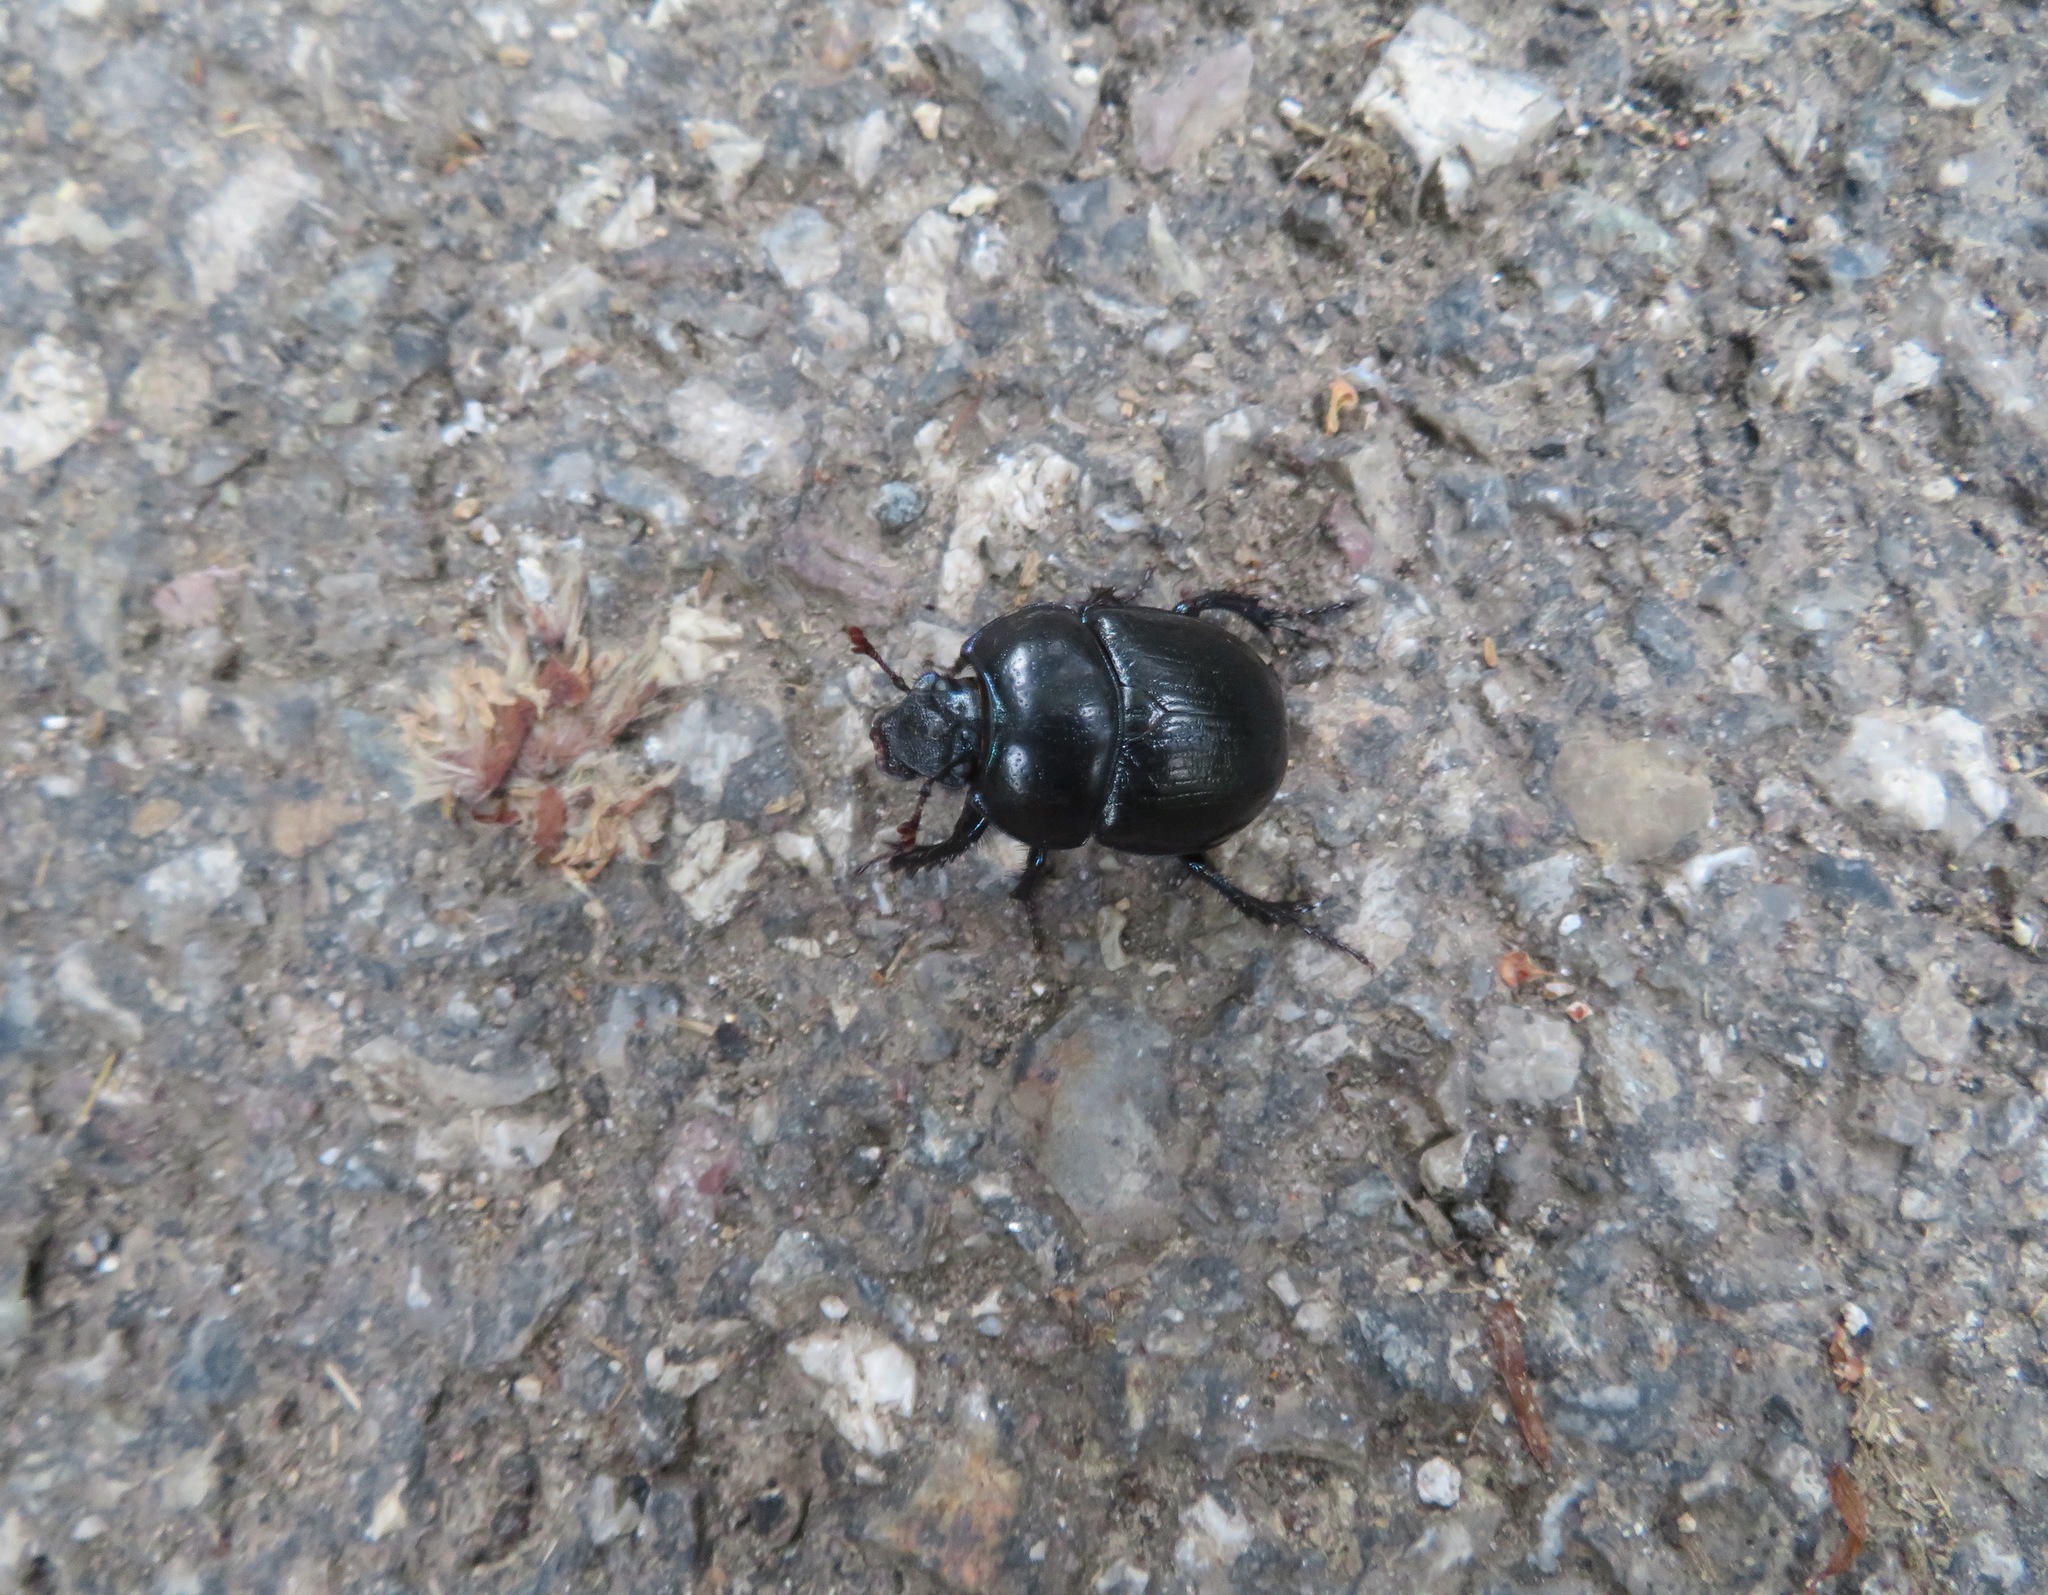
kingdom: Animalia
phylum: Arthropoda
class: Insecta
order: Coleoptera
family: Geotrupidae
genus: Anoplotrupes
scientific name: Anoplotrupes stercorosus
